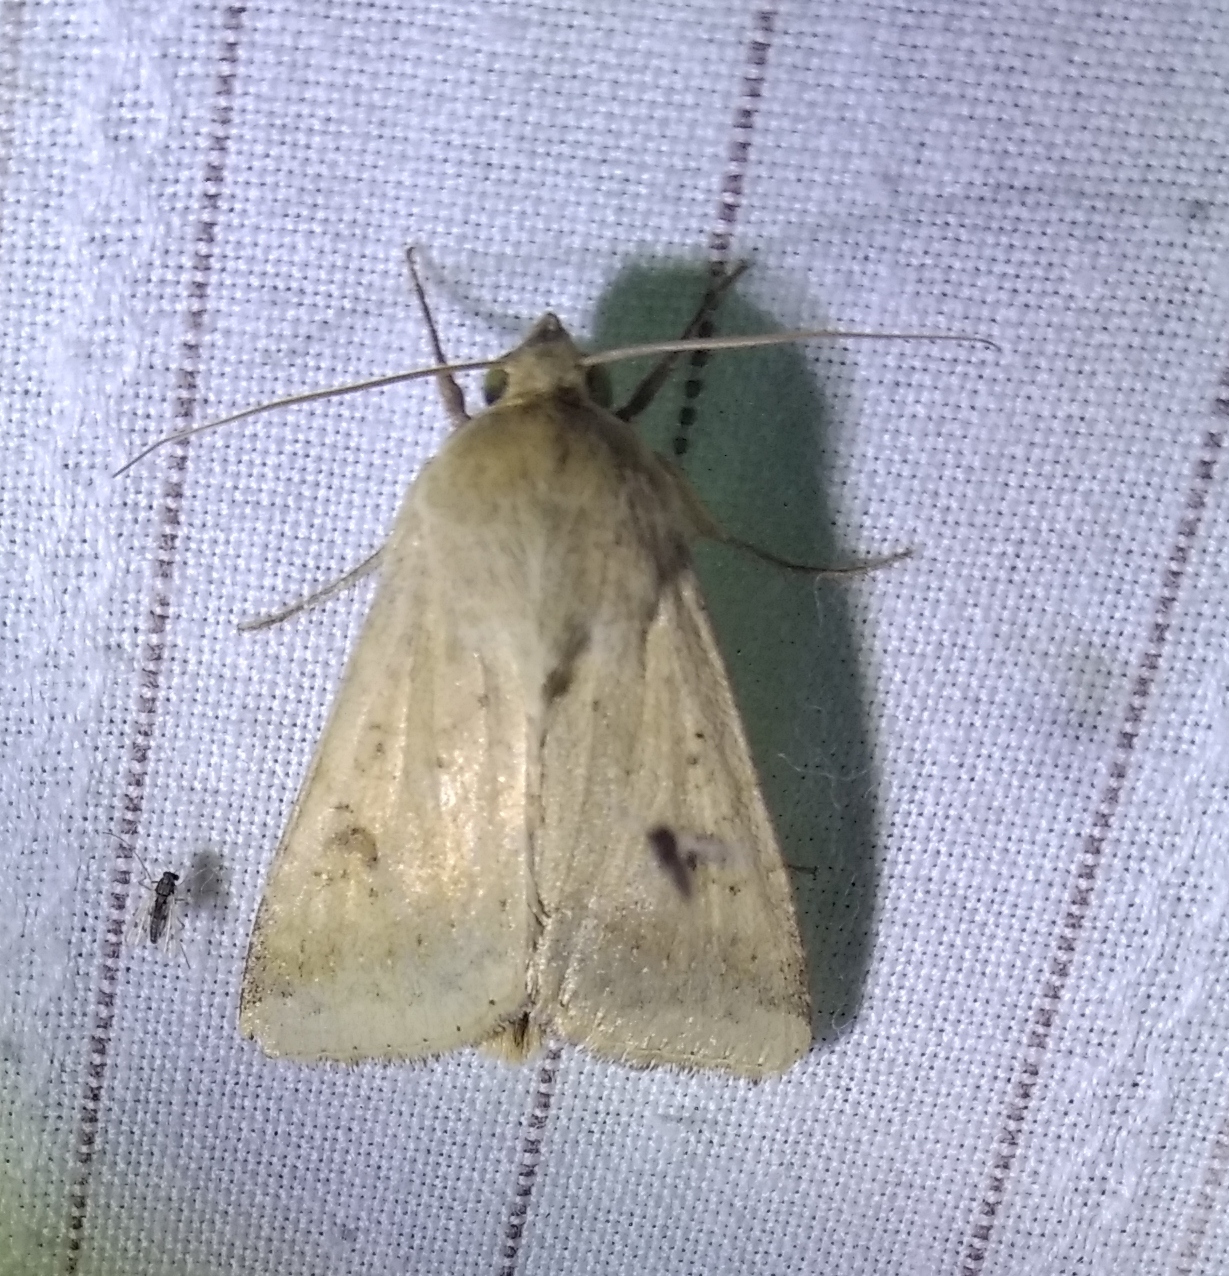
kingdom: Animalia
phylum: Arthropoda
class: Insecta
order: Lepidoptera
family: Noctuidae
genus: Helicoverpa
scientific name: Helicoverpa armigera
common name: Cotton bollworm
